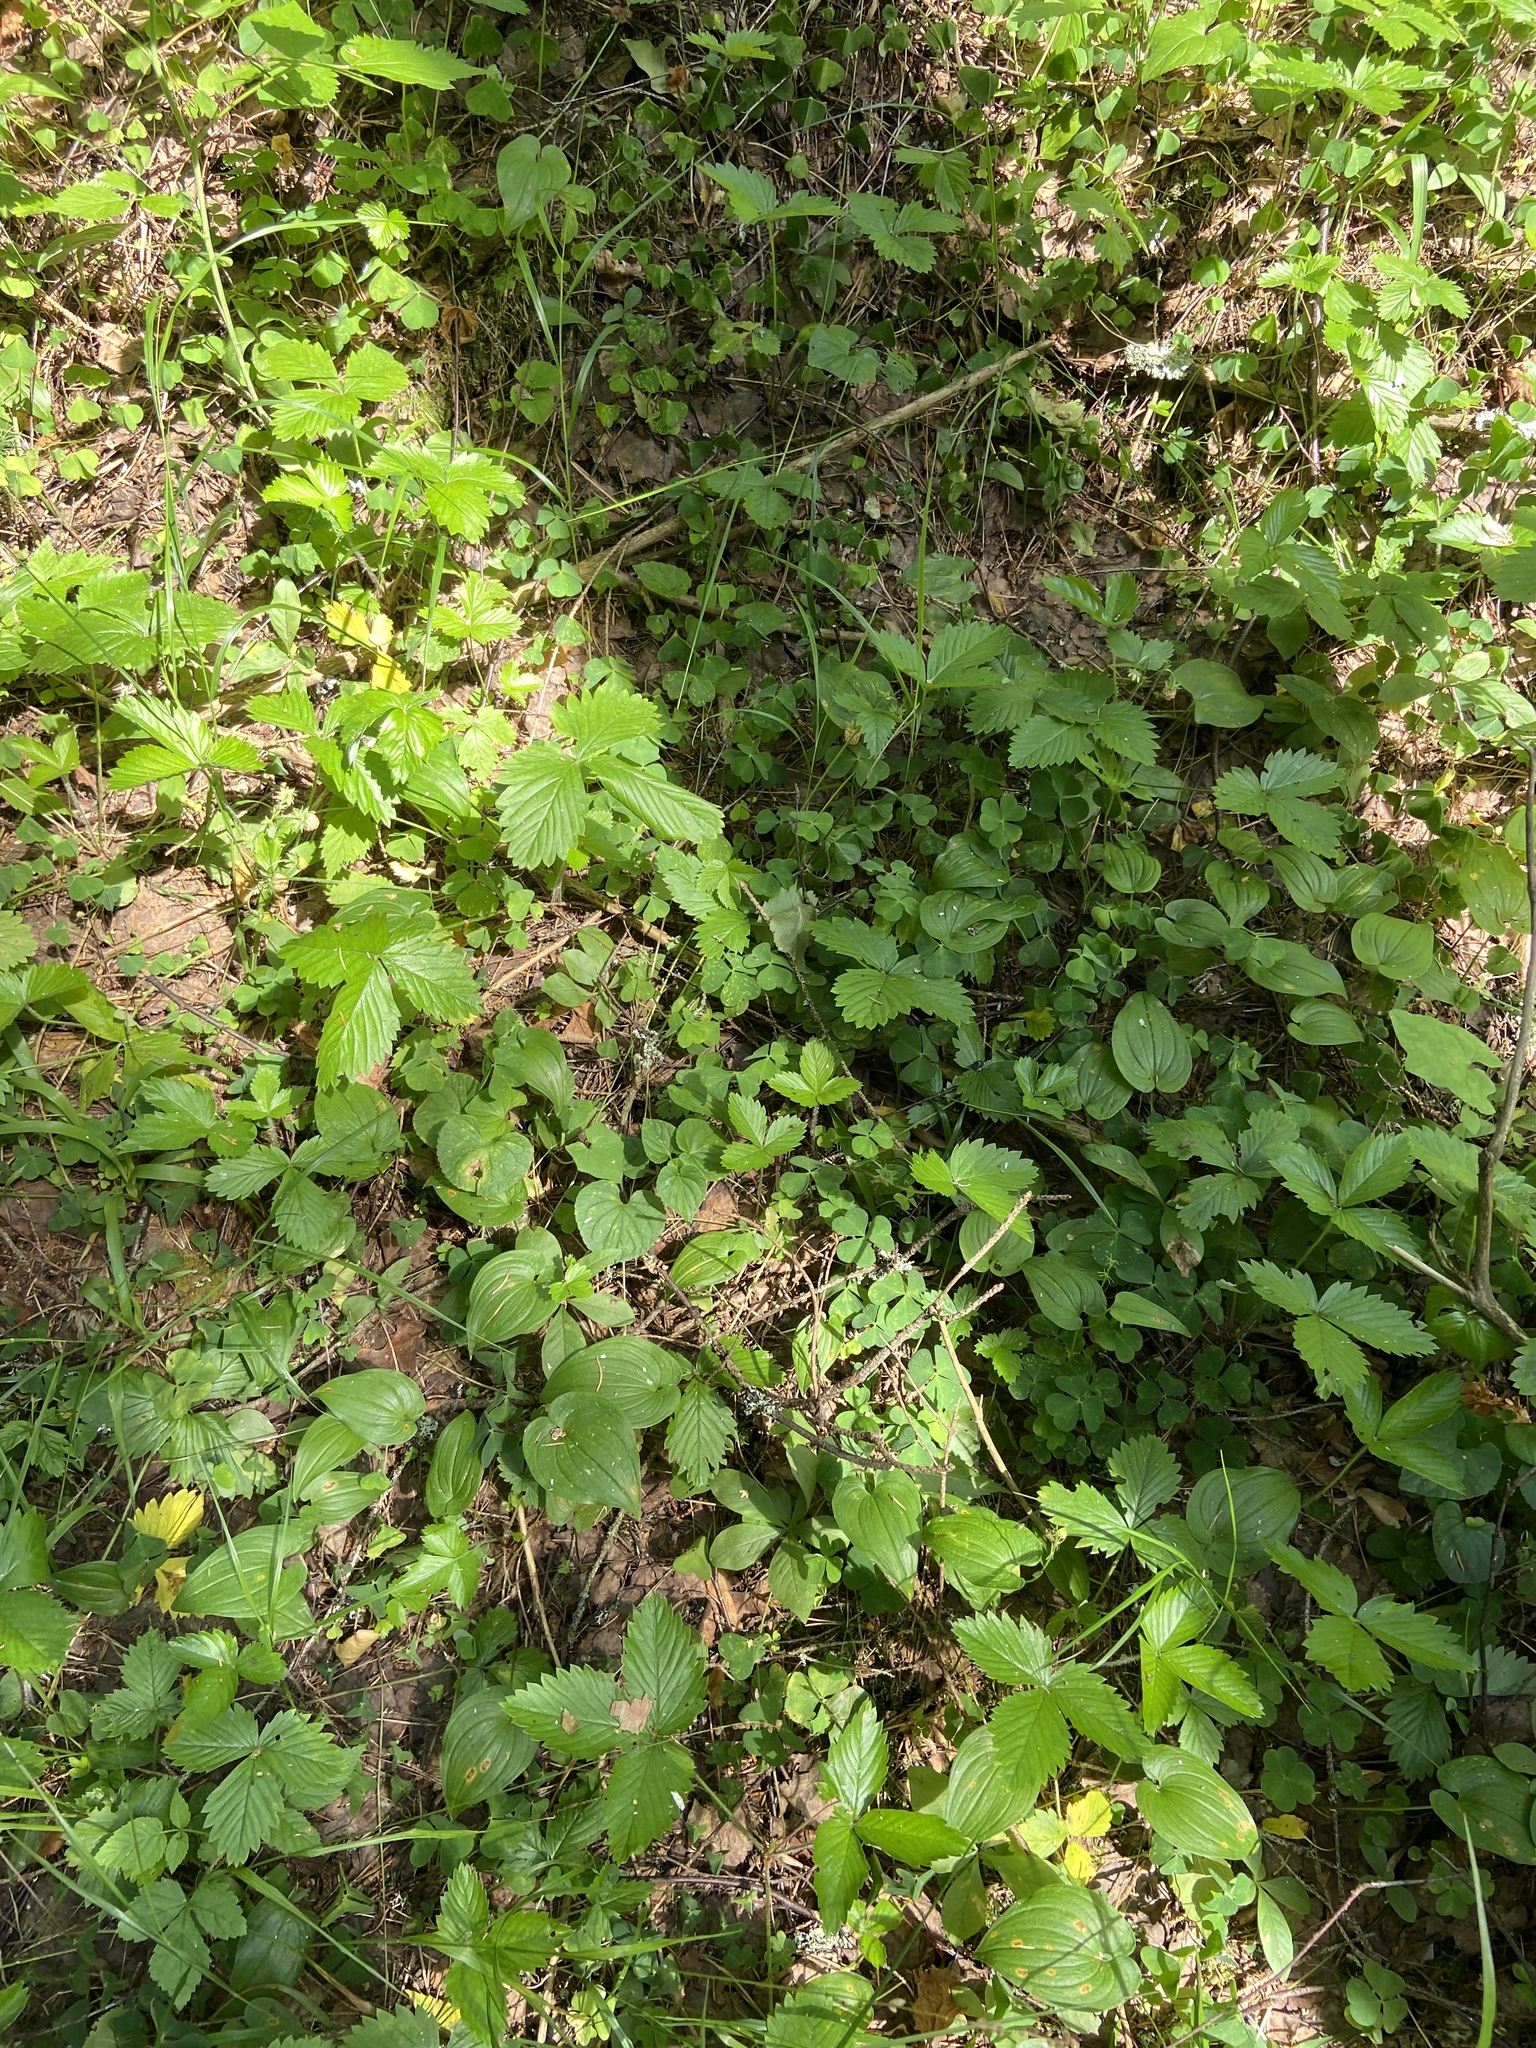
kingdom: Plantae
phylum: Tracheophyta
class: Magnoliopsida
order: Rosales
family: Rosaceae
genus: Fragaria
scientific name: Fragaria vesca
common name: Wild strawberry
